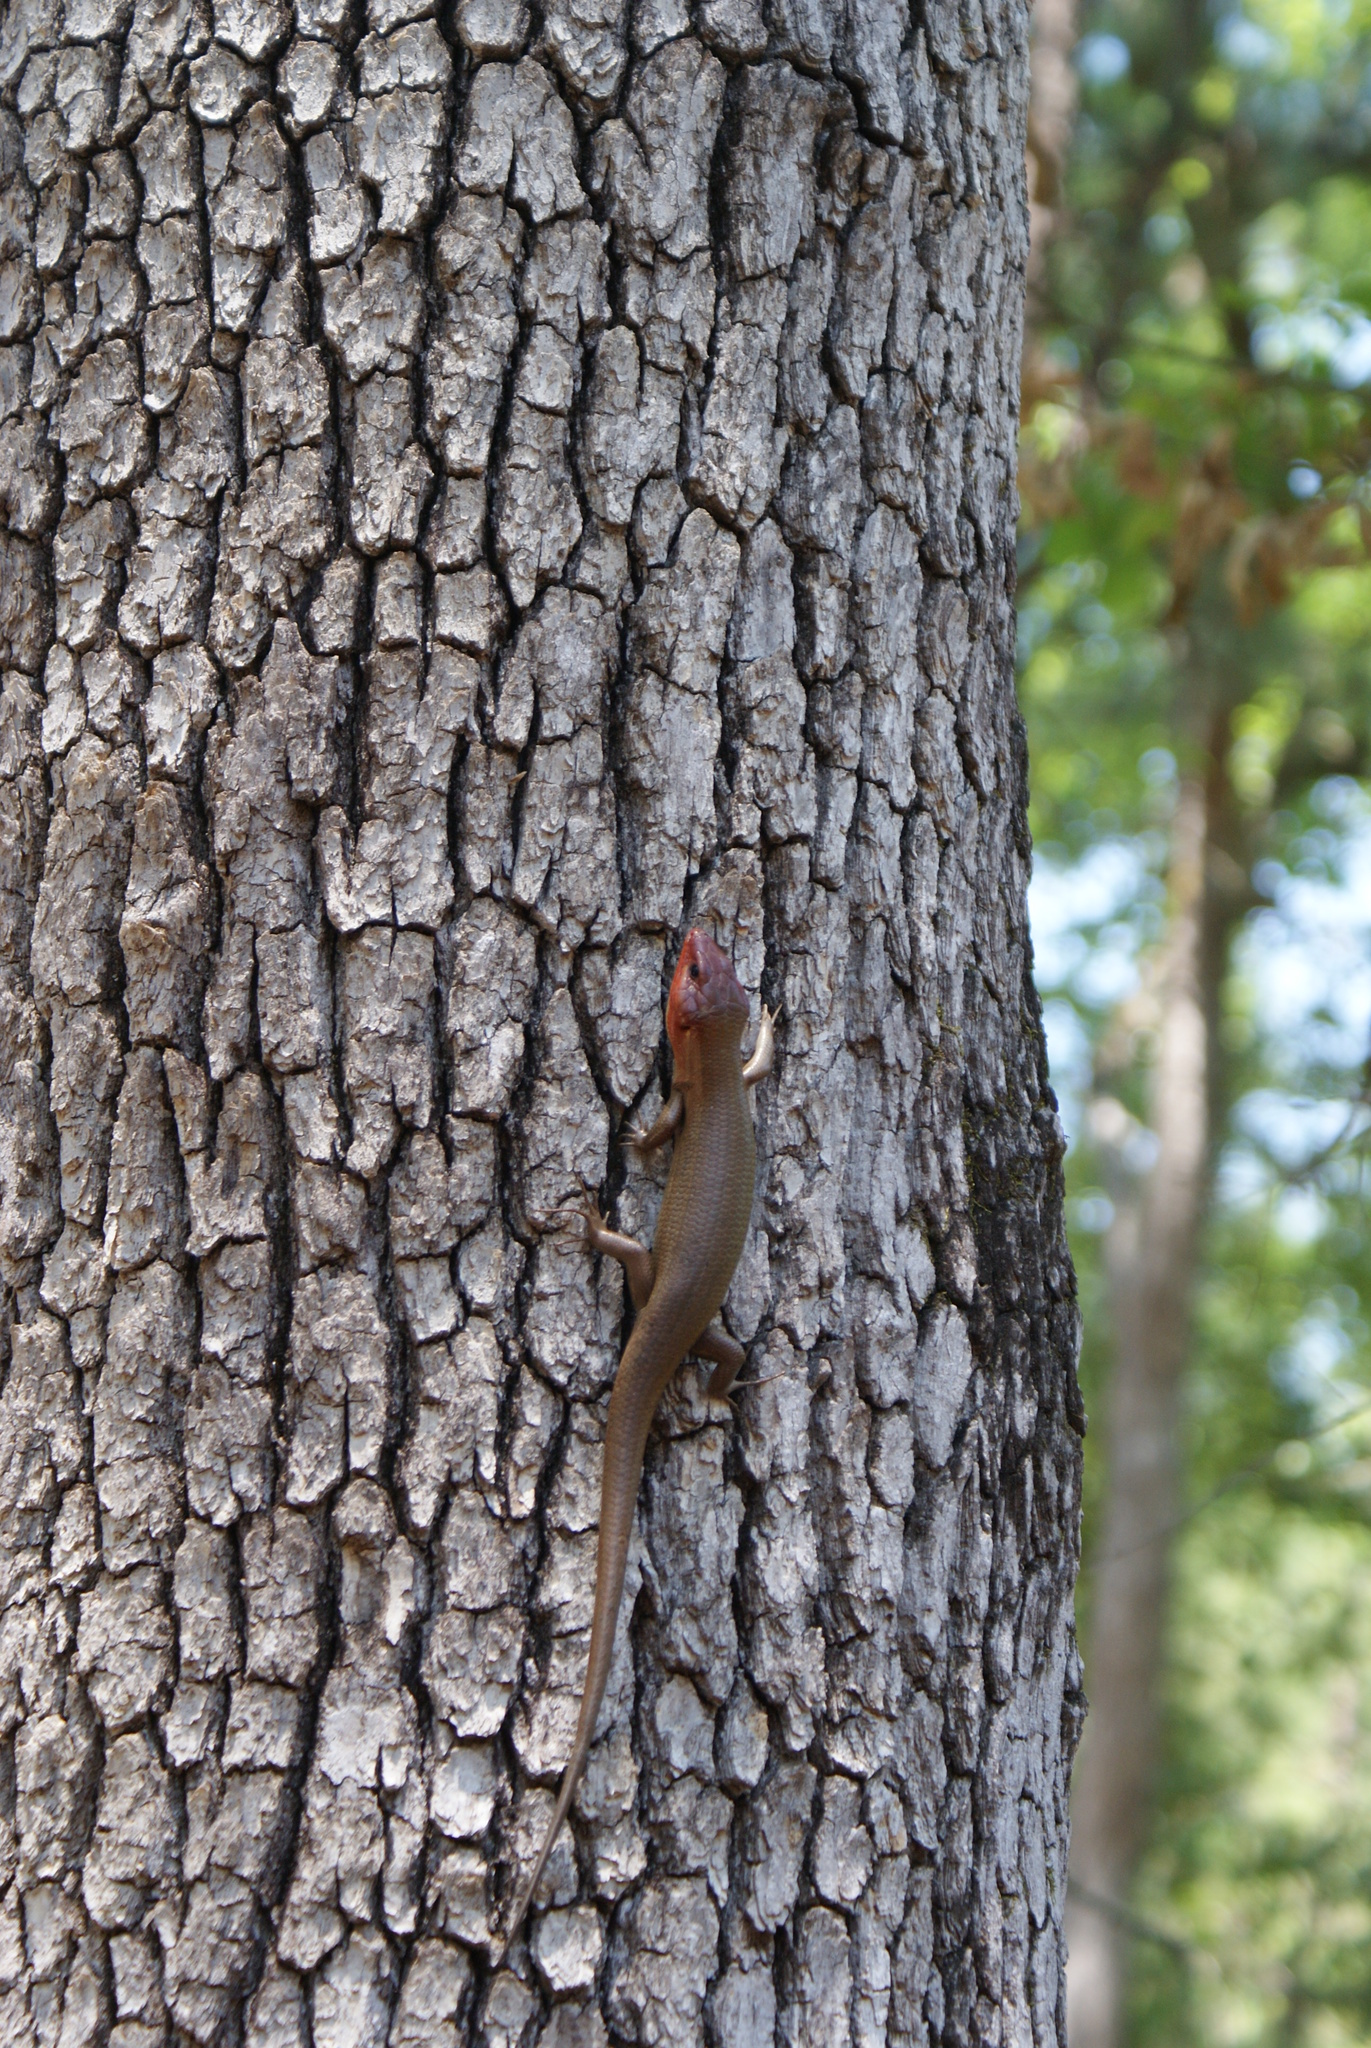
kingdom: Animalia
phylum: Chordata
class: Squamata
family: Scincidae
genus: Plestiodon
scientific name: Plestiodon laticeps
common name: Broadhead skink
